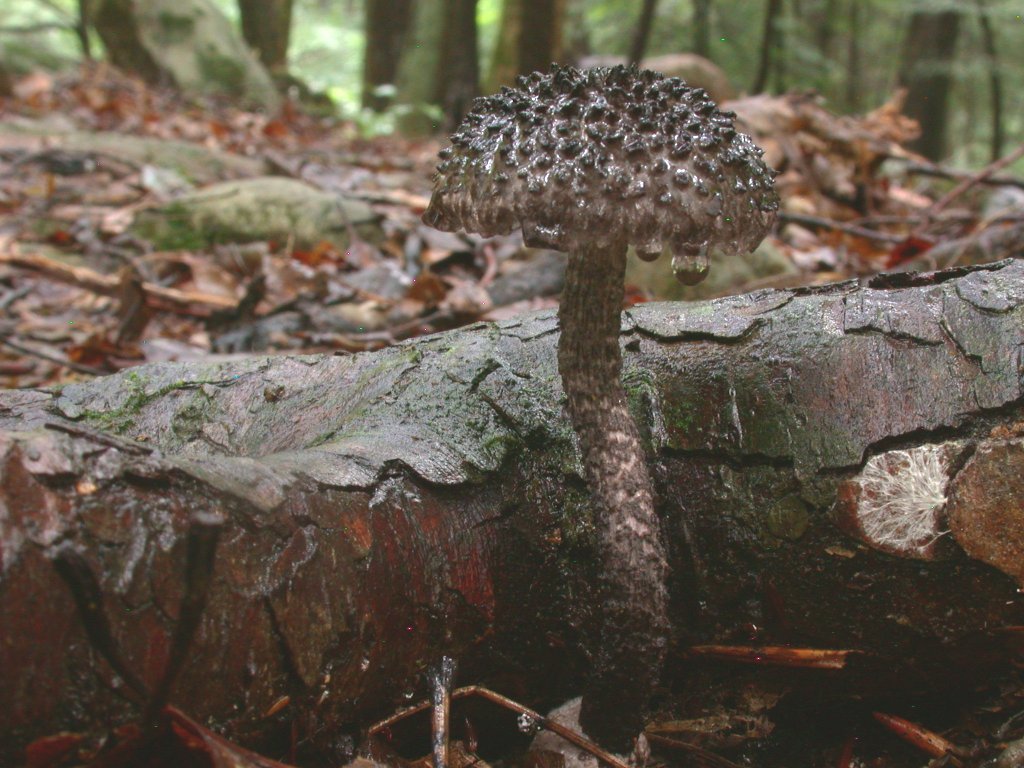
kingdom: Fungi
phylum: Basidiomycota
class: Agaricomycetes
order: Boletales
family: Boletaceae
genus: Strobilomyces
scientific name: Strobilomyces strobilaceus
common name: Old man of the woods
